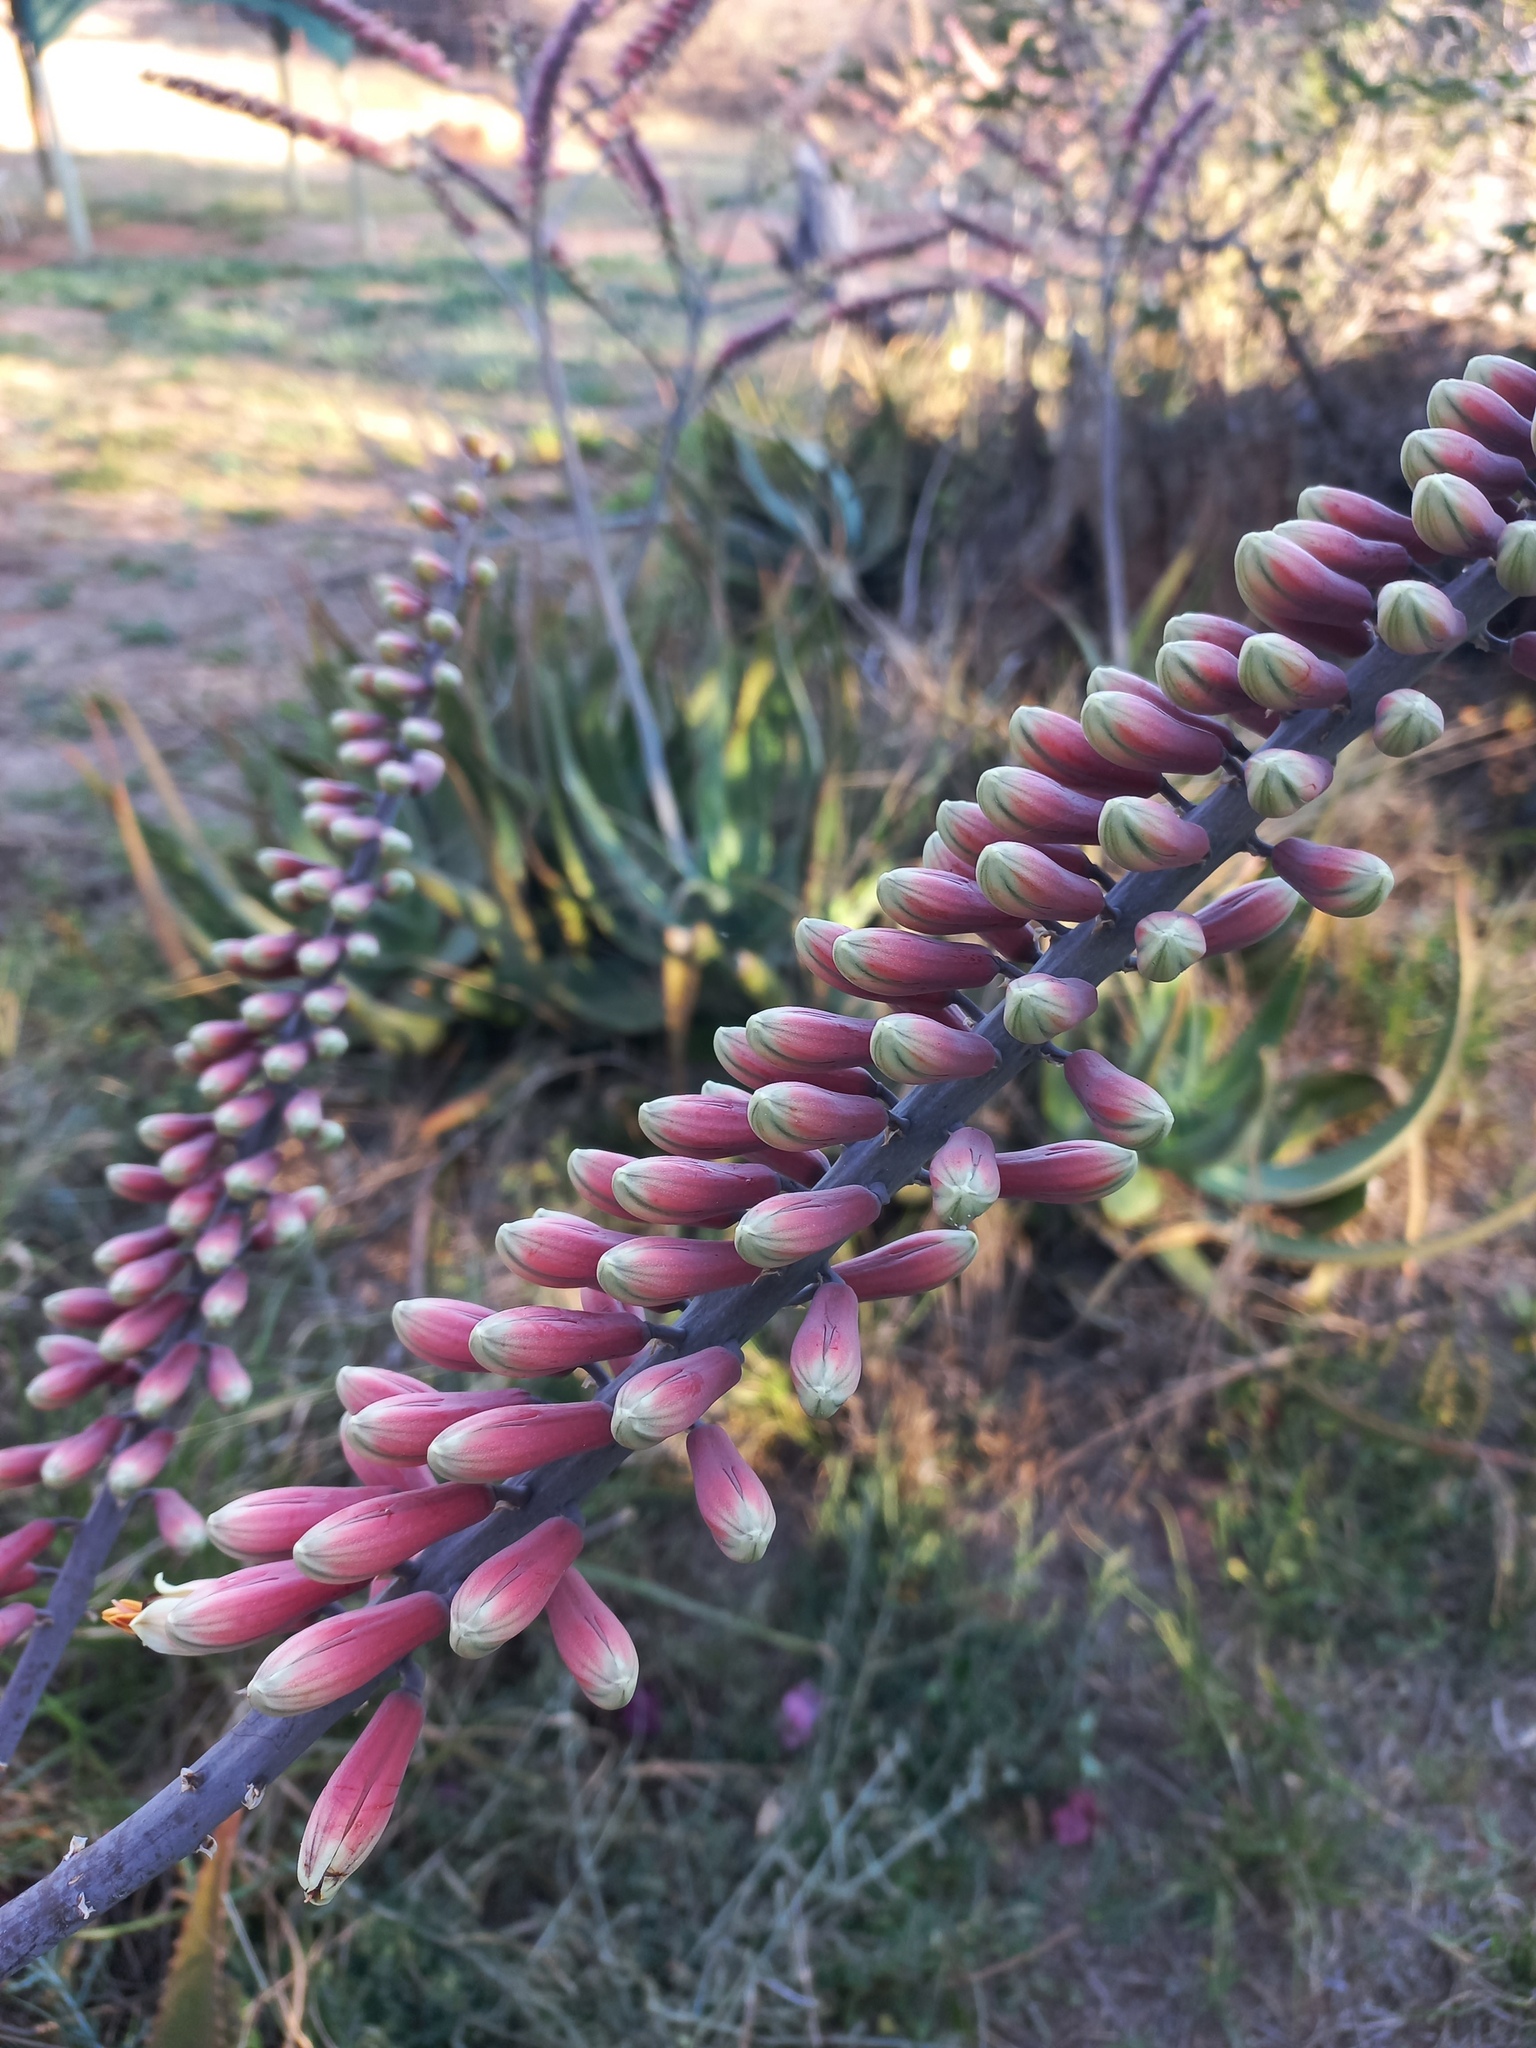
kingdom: Plantae
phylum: Tracheophyta
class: Liliopsida
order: Asparagales
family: Asphodelaceae
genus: Aloe
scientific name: Aloe globuligemma
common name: Witchdoctor's aloe
